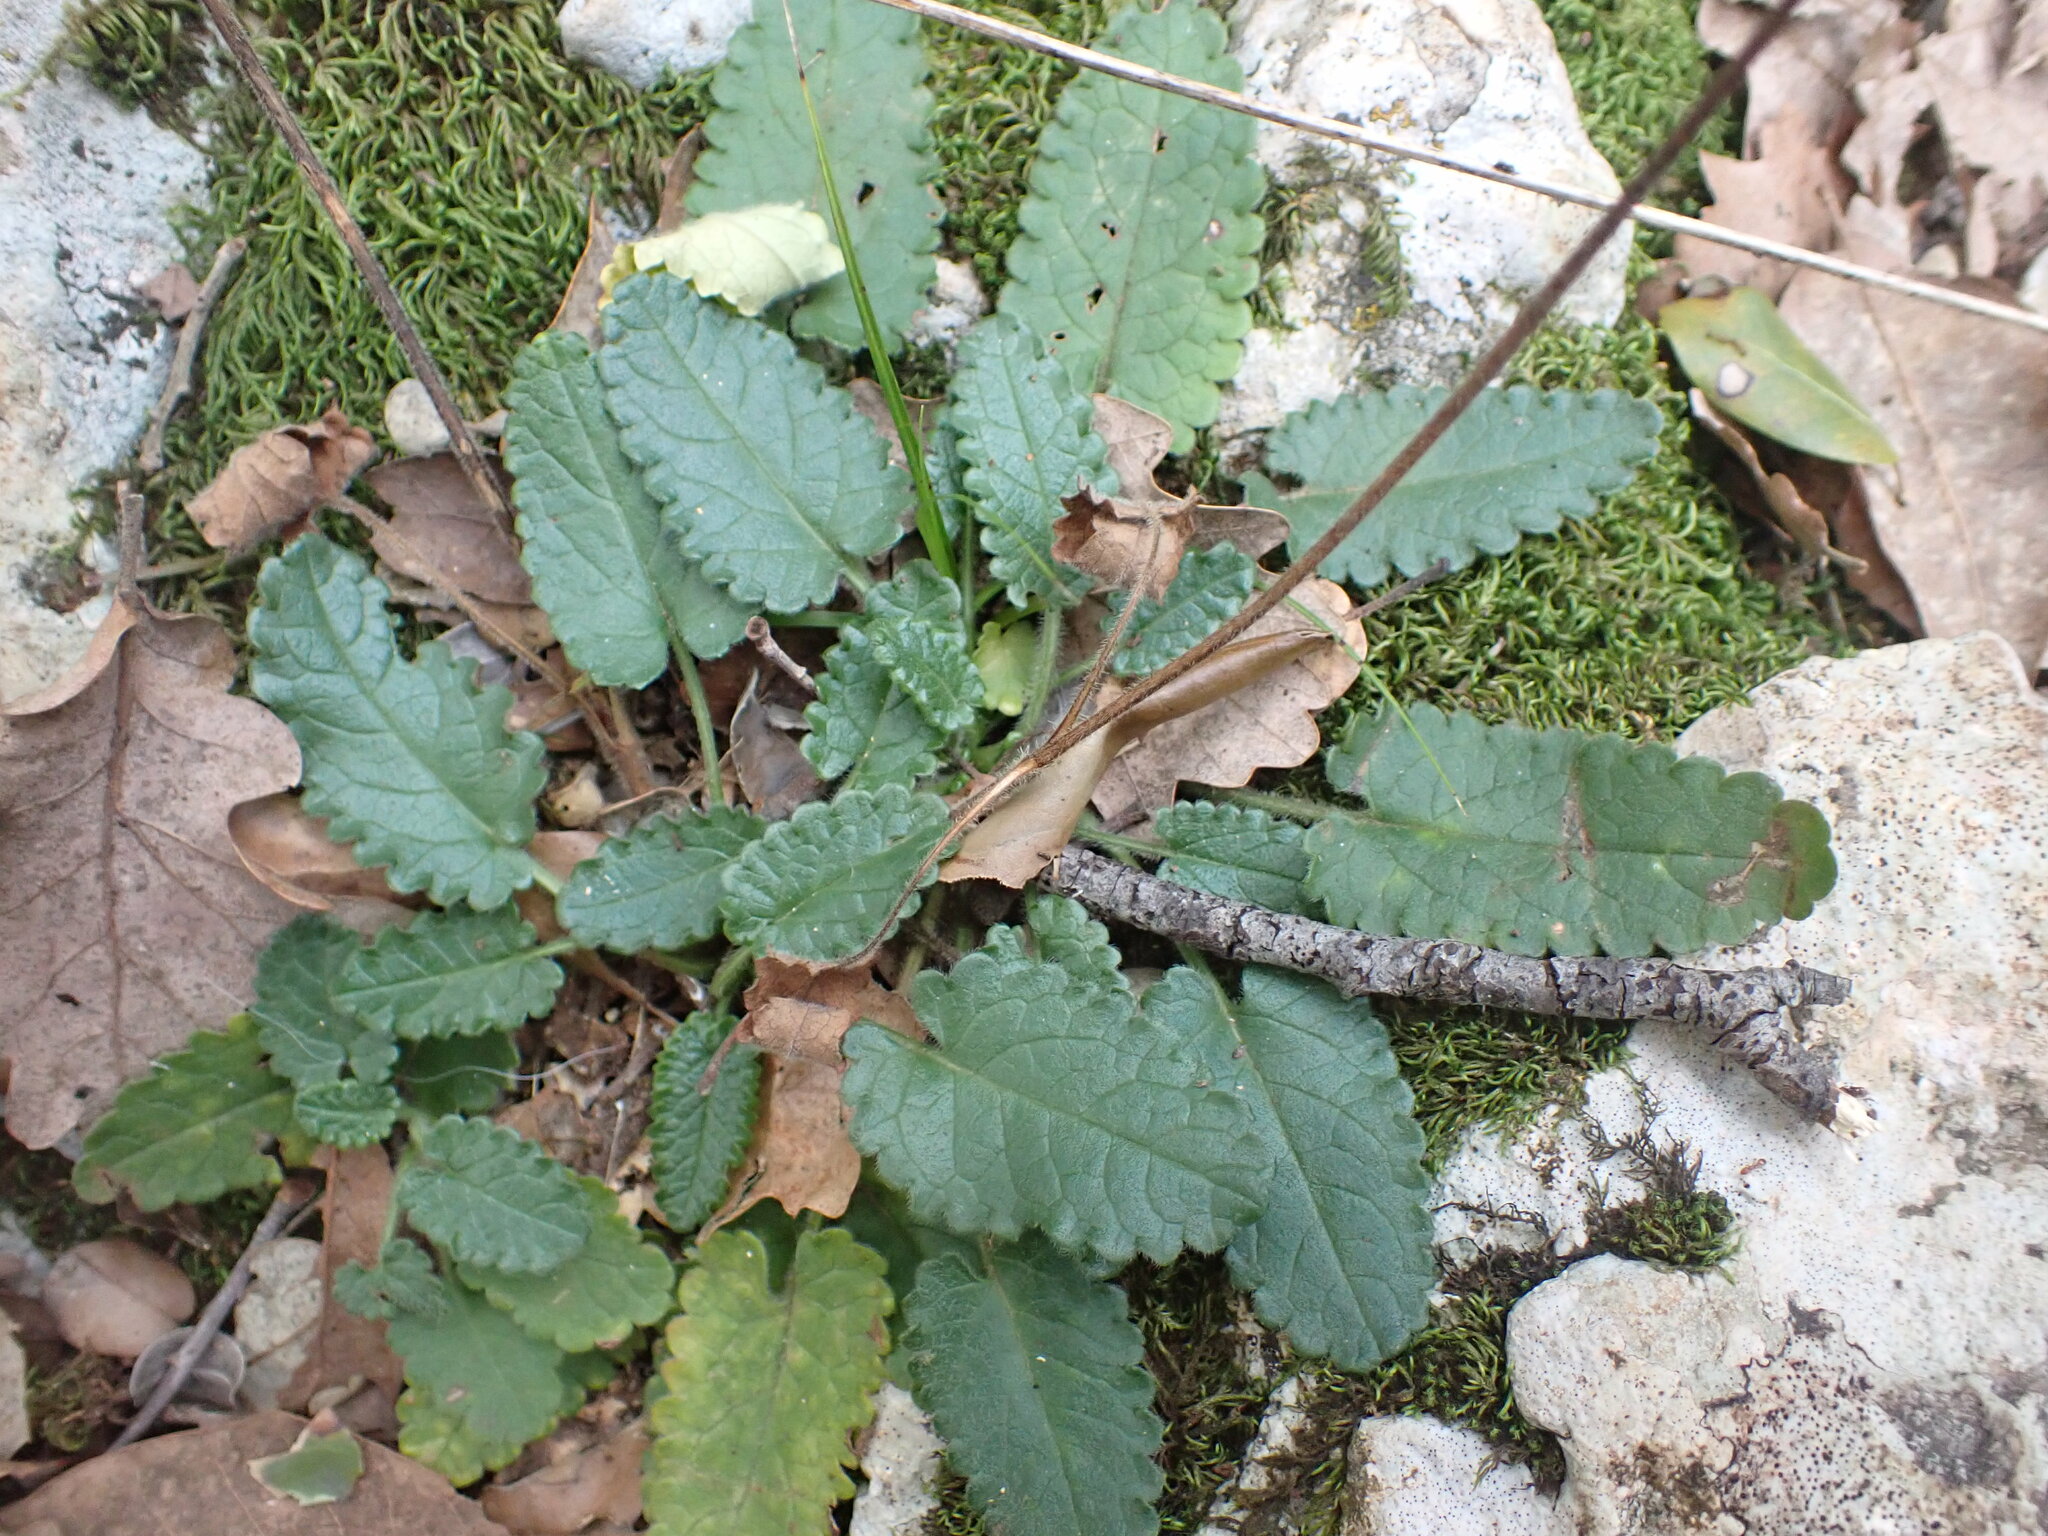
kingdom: Plantae
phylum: Tracheophyta
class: Magnoliopsida
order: Lamiales
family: Lamiaceae
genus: Betonica
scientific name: Betonica officinalis
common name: Bishop's-wort
